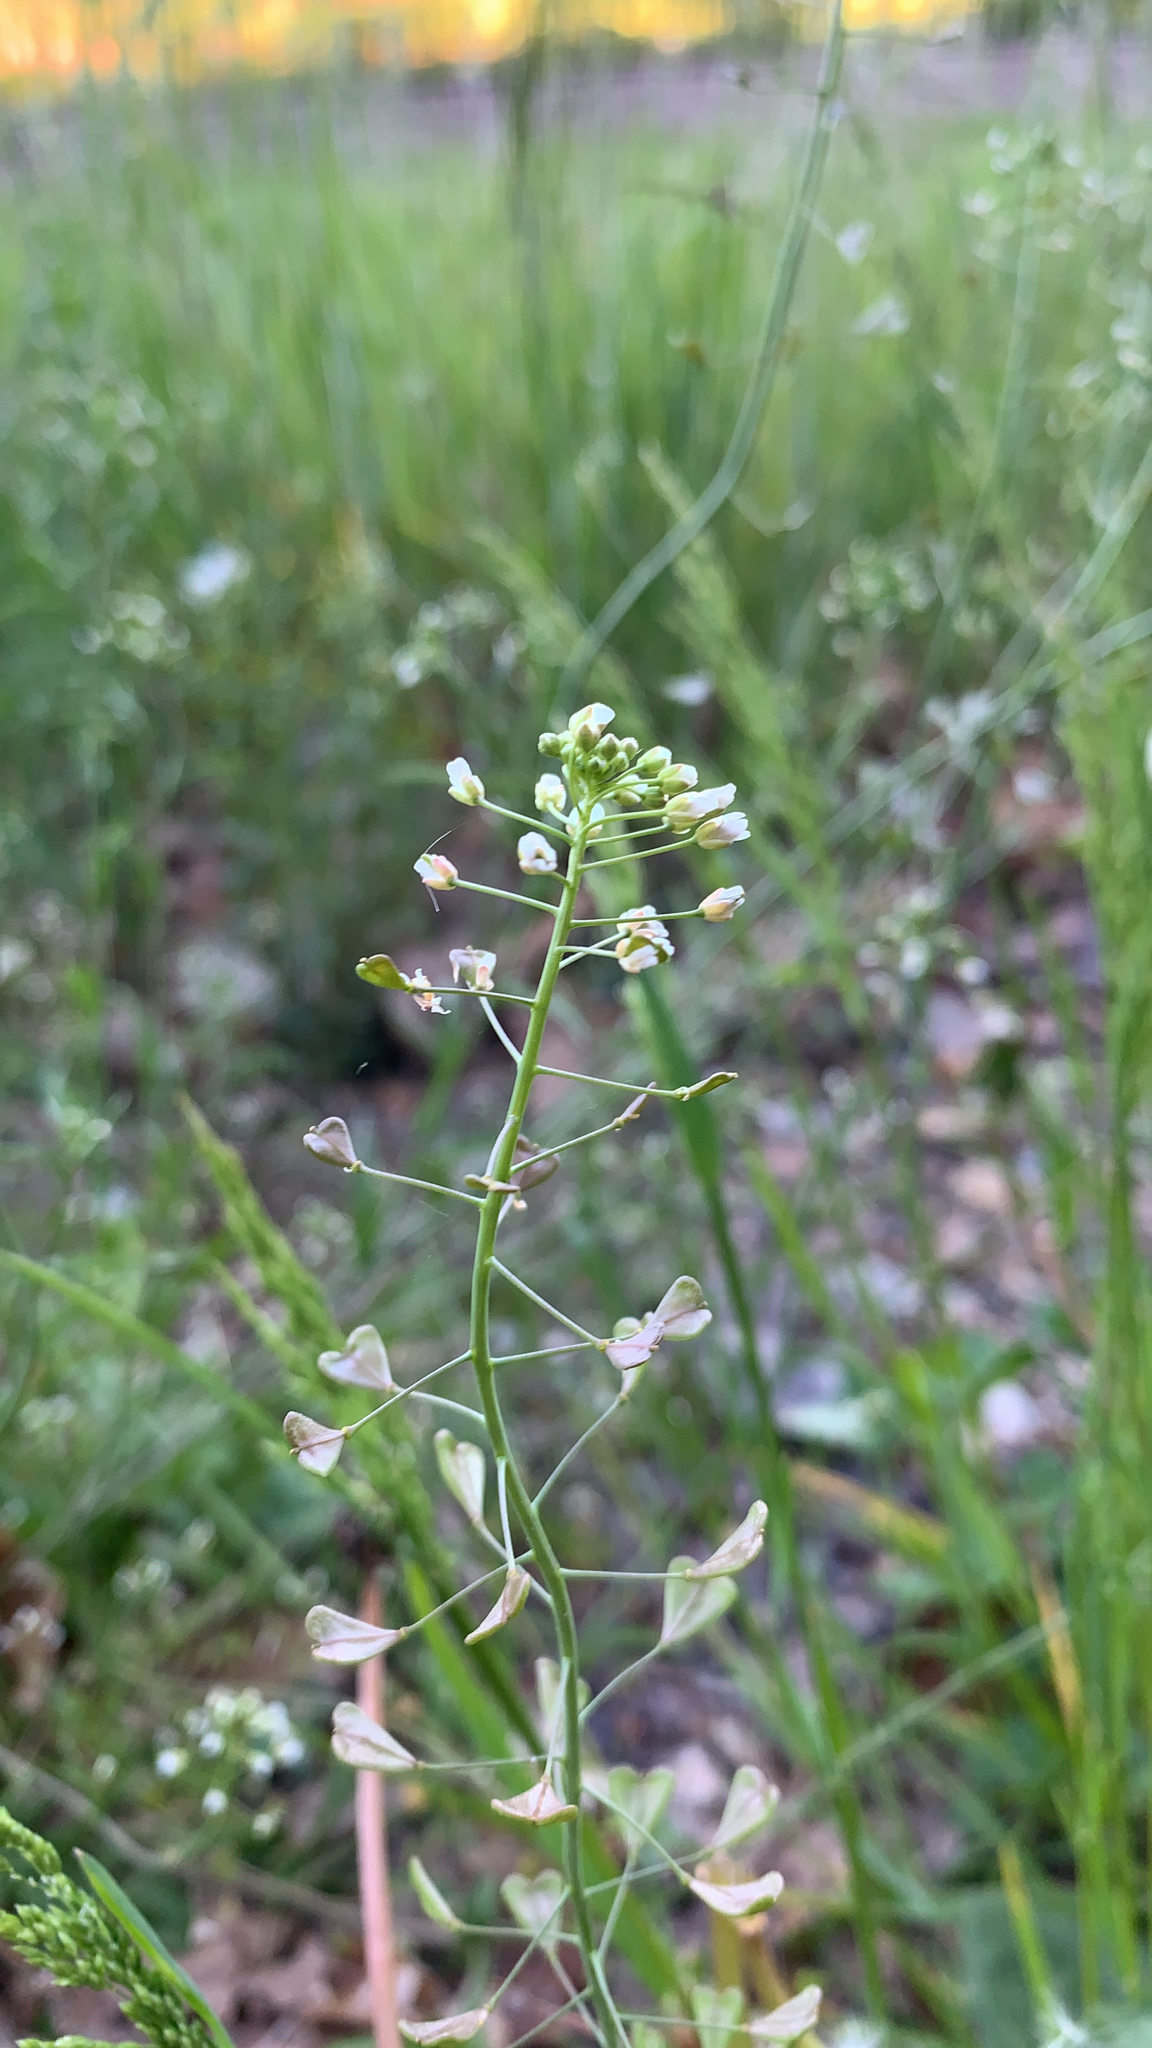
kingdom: Plantae
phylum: Tracheophyta
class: Magnoliopsida
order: Brassicales
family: Brassicaceae
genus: Capsella
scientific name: Capsella bursa-pastoris
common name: Shepherd's purse
